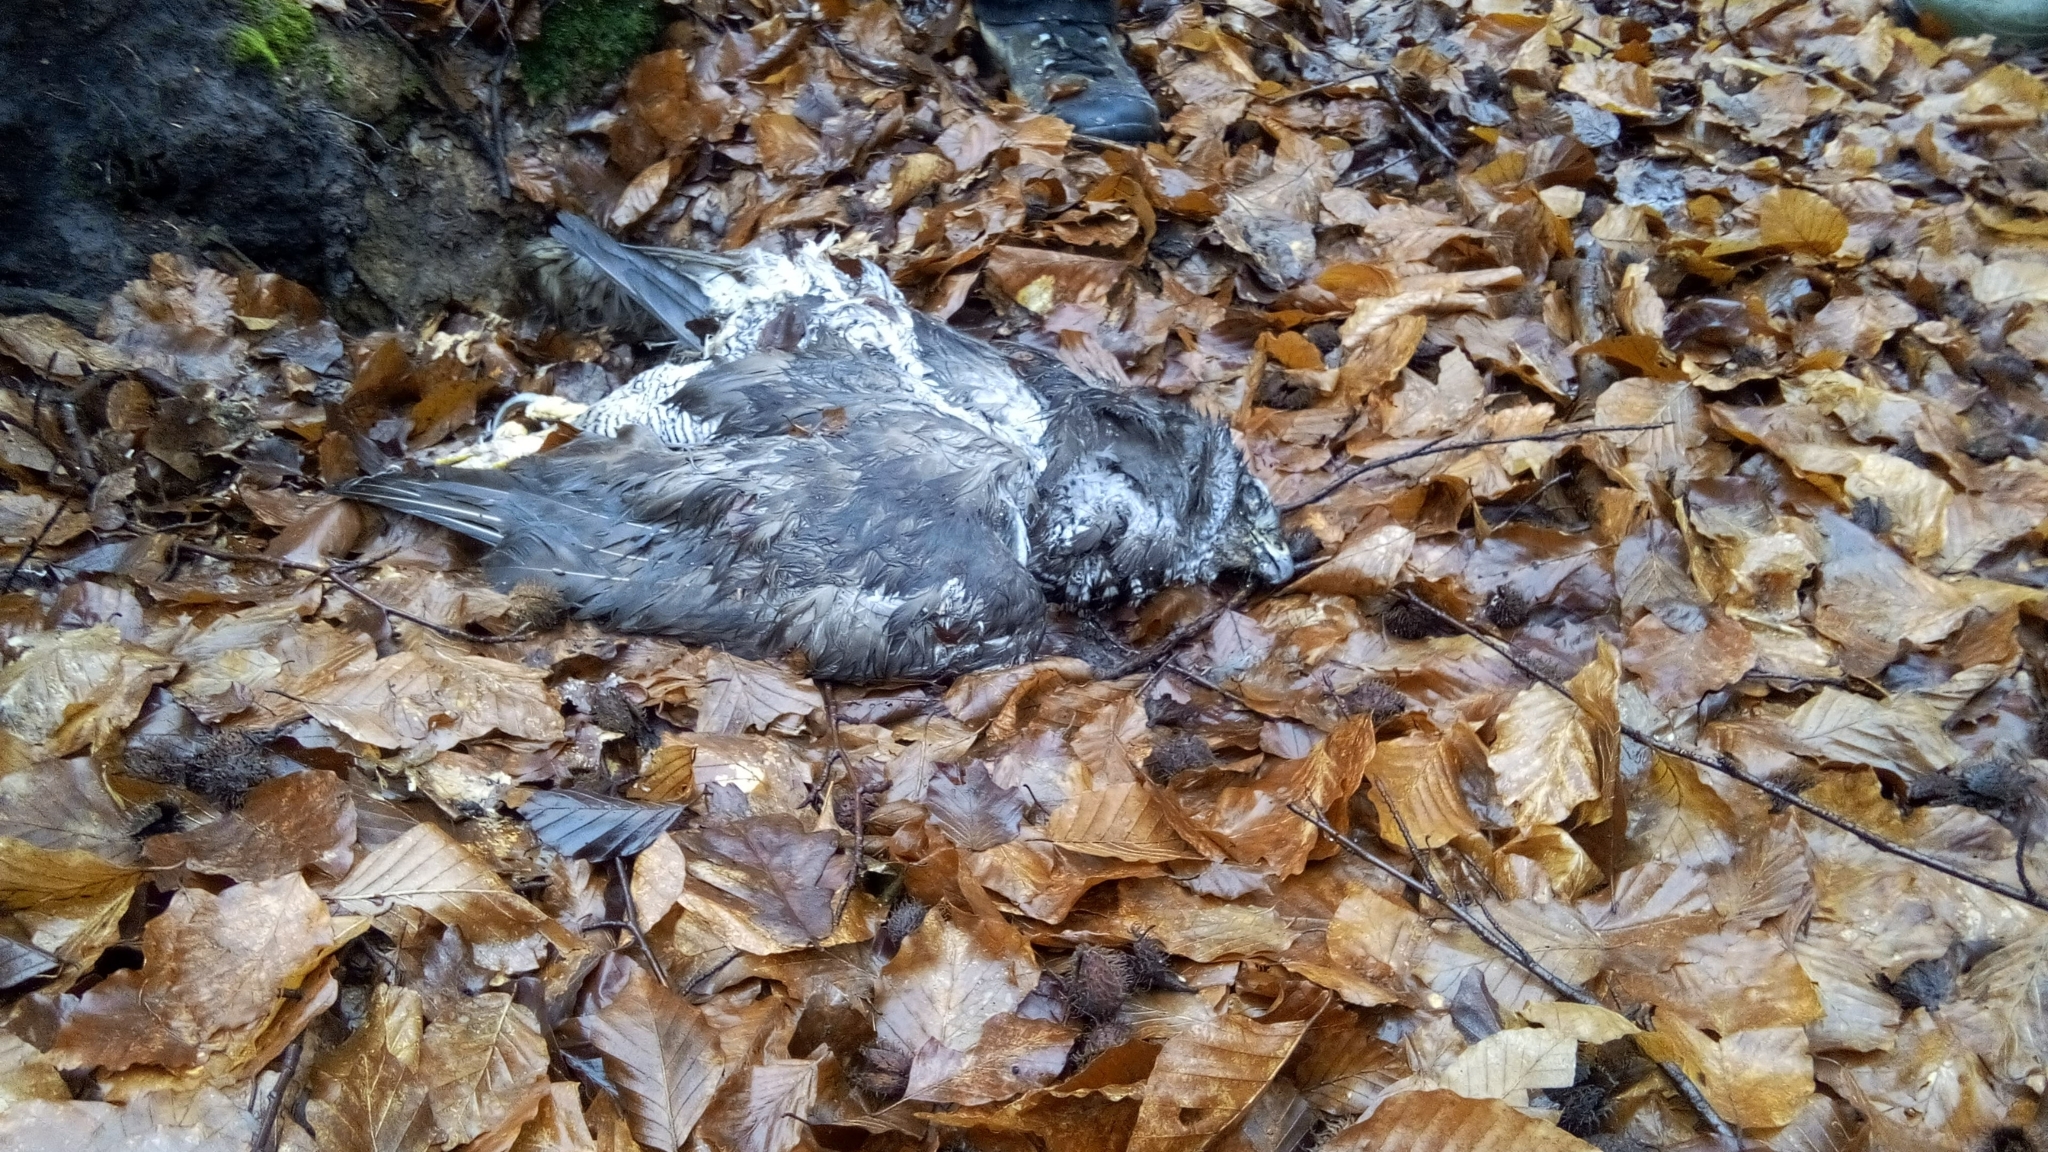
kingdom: Animalia
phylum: Chordata
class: Aves
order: Accipitriformes
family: Accipitridae
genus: Accipiter
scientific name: Accipiter gentilis
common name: Northern goshawk
